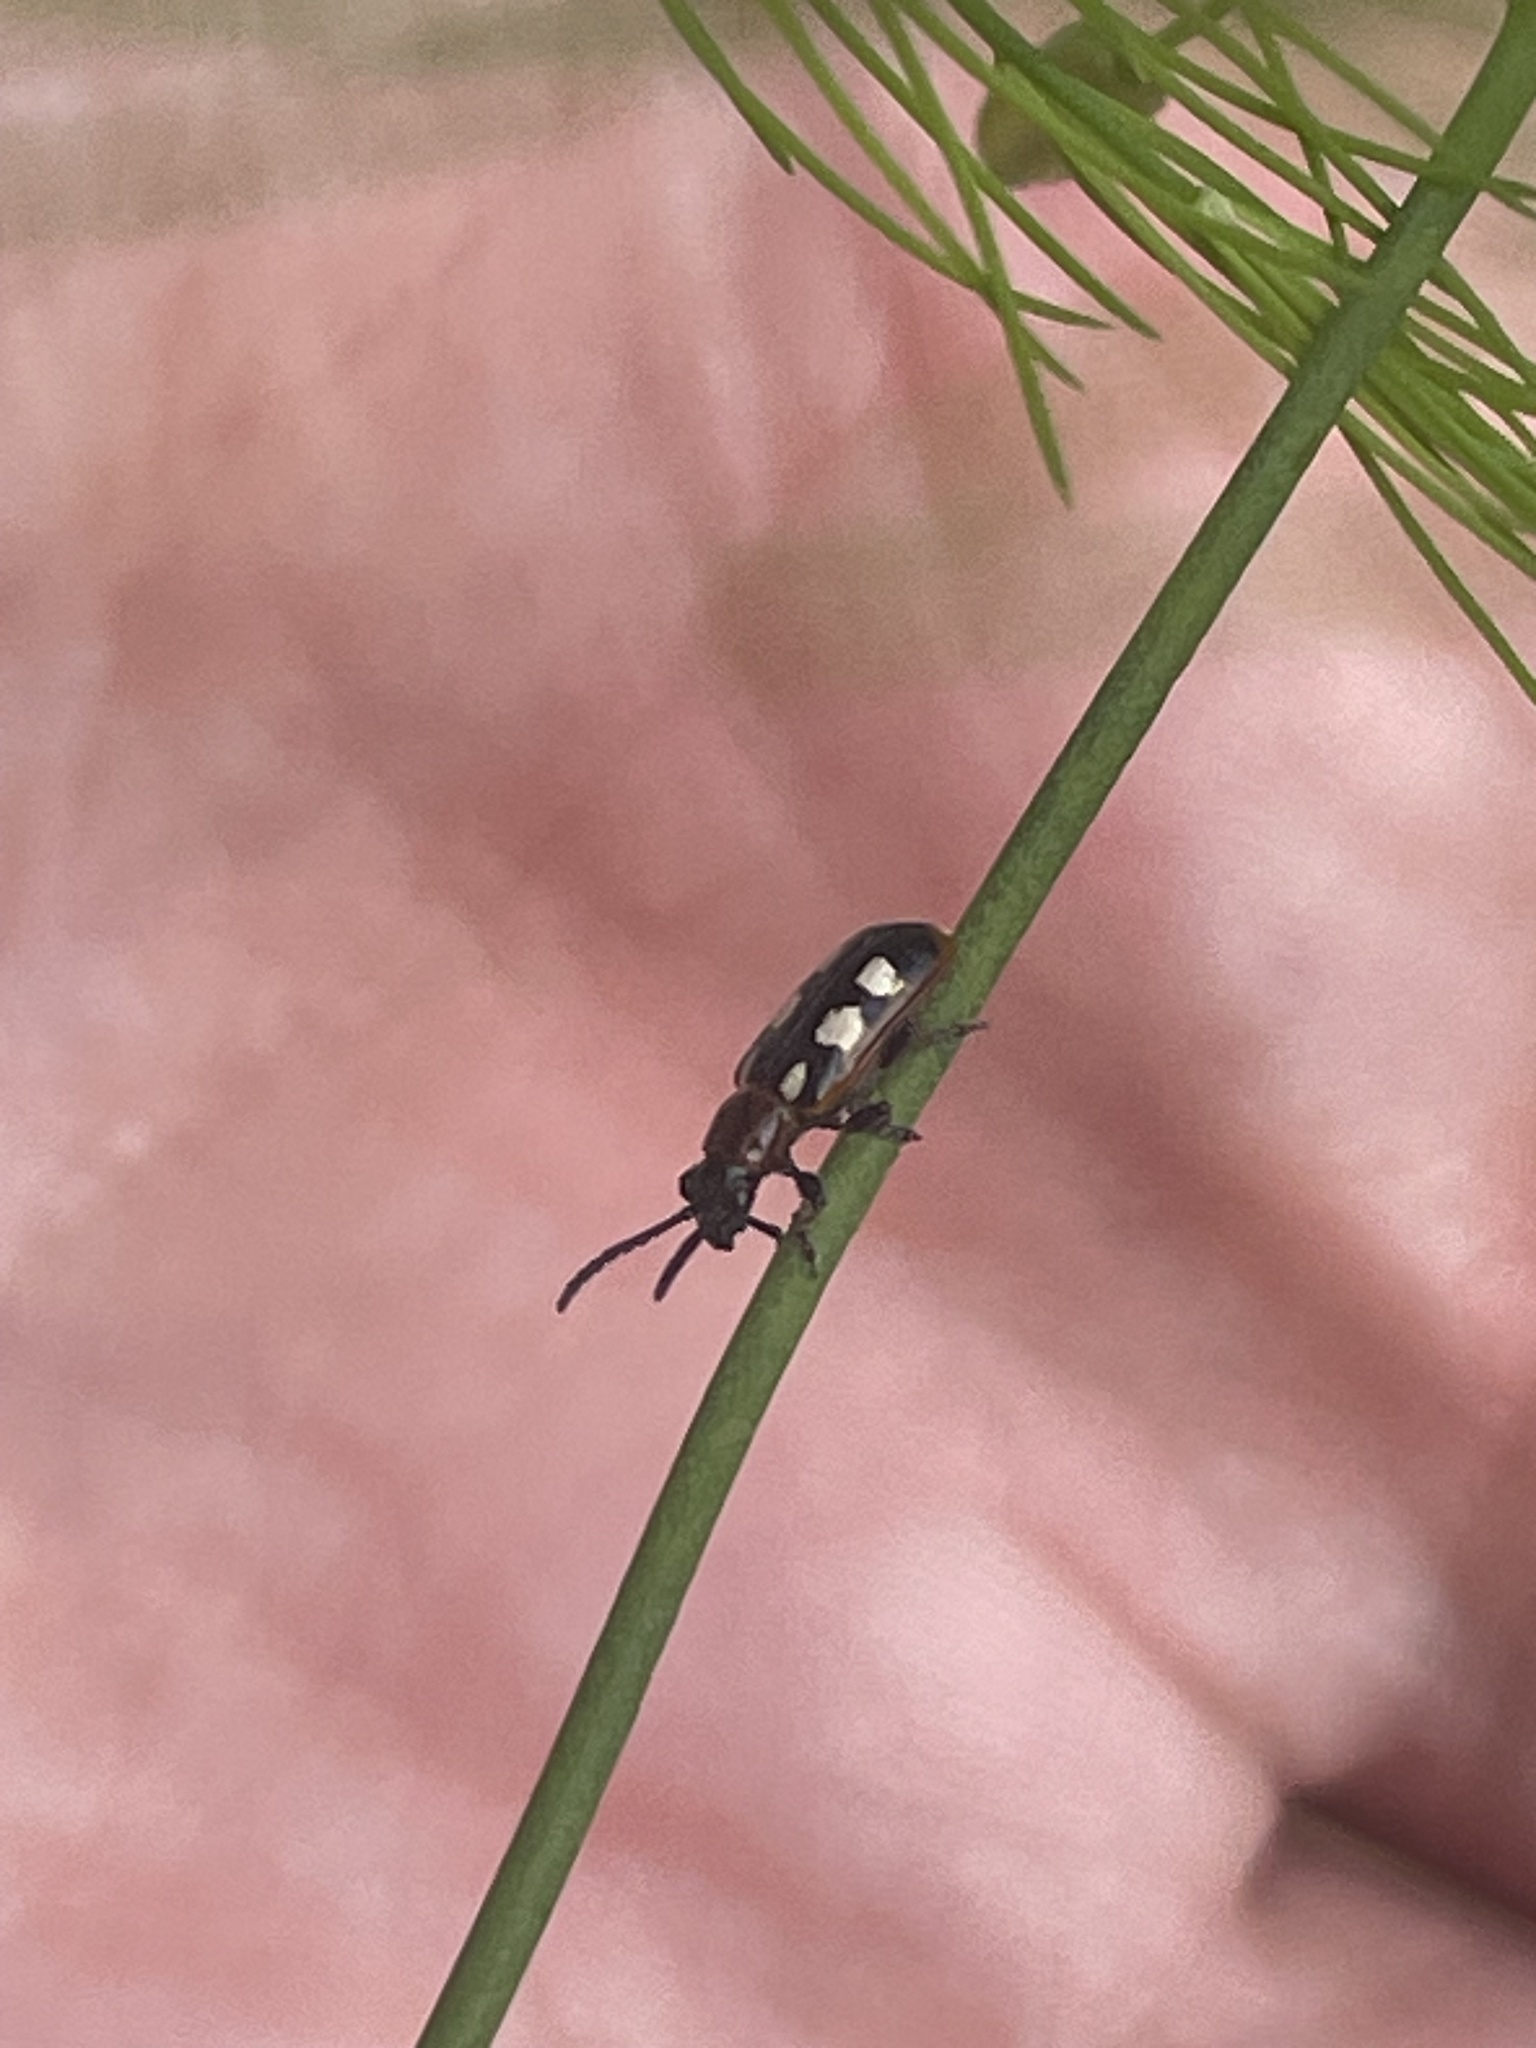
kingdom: Animalia
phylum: Arthropoda
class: Insecta
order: Coleoptera
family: Chrysomelidae
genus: Crioceris
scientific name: Crioceris asparagi
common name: Asparagus beetle
